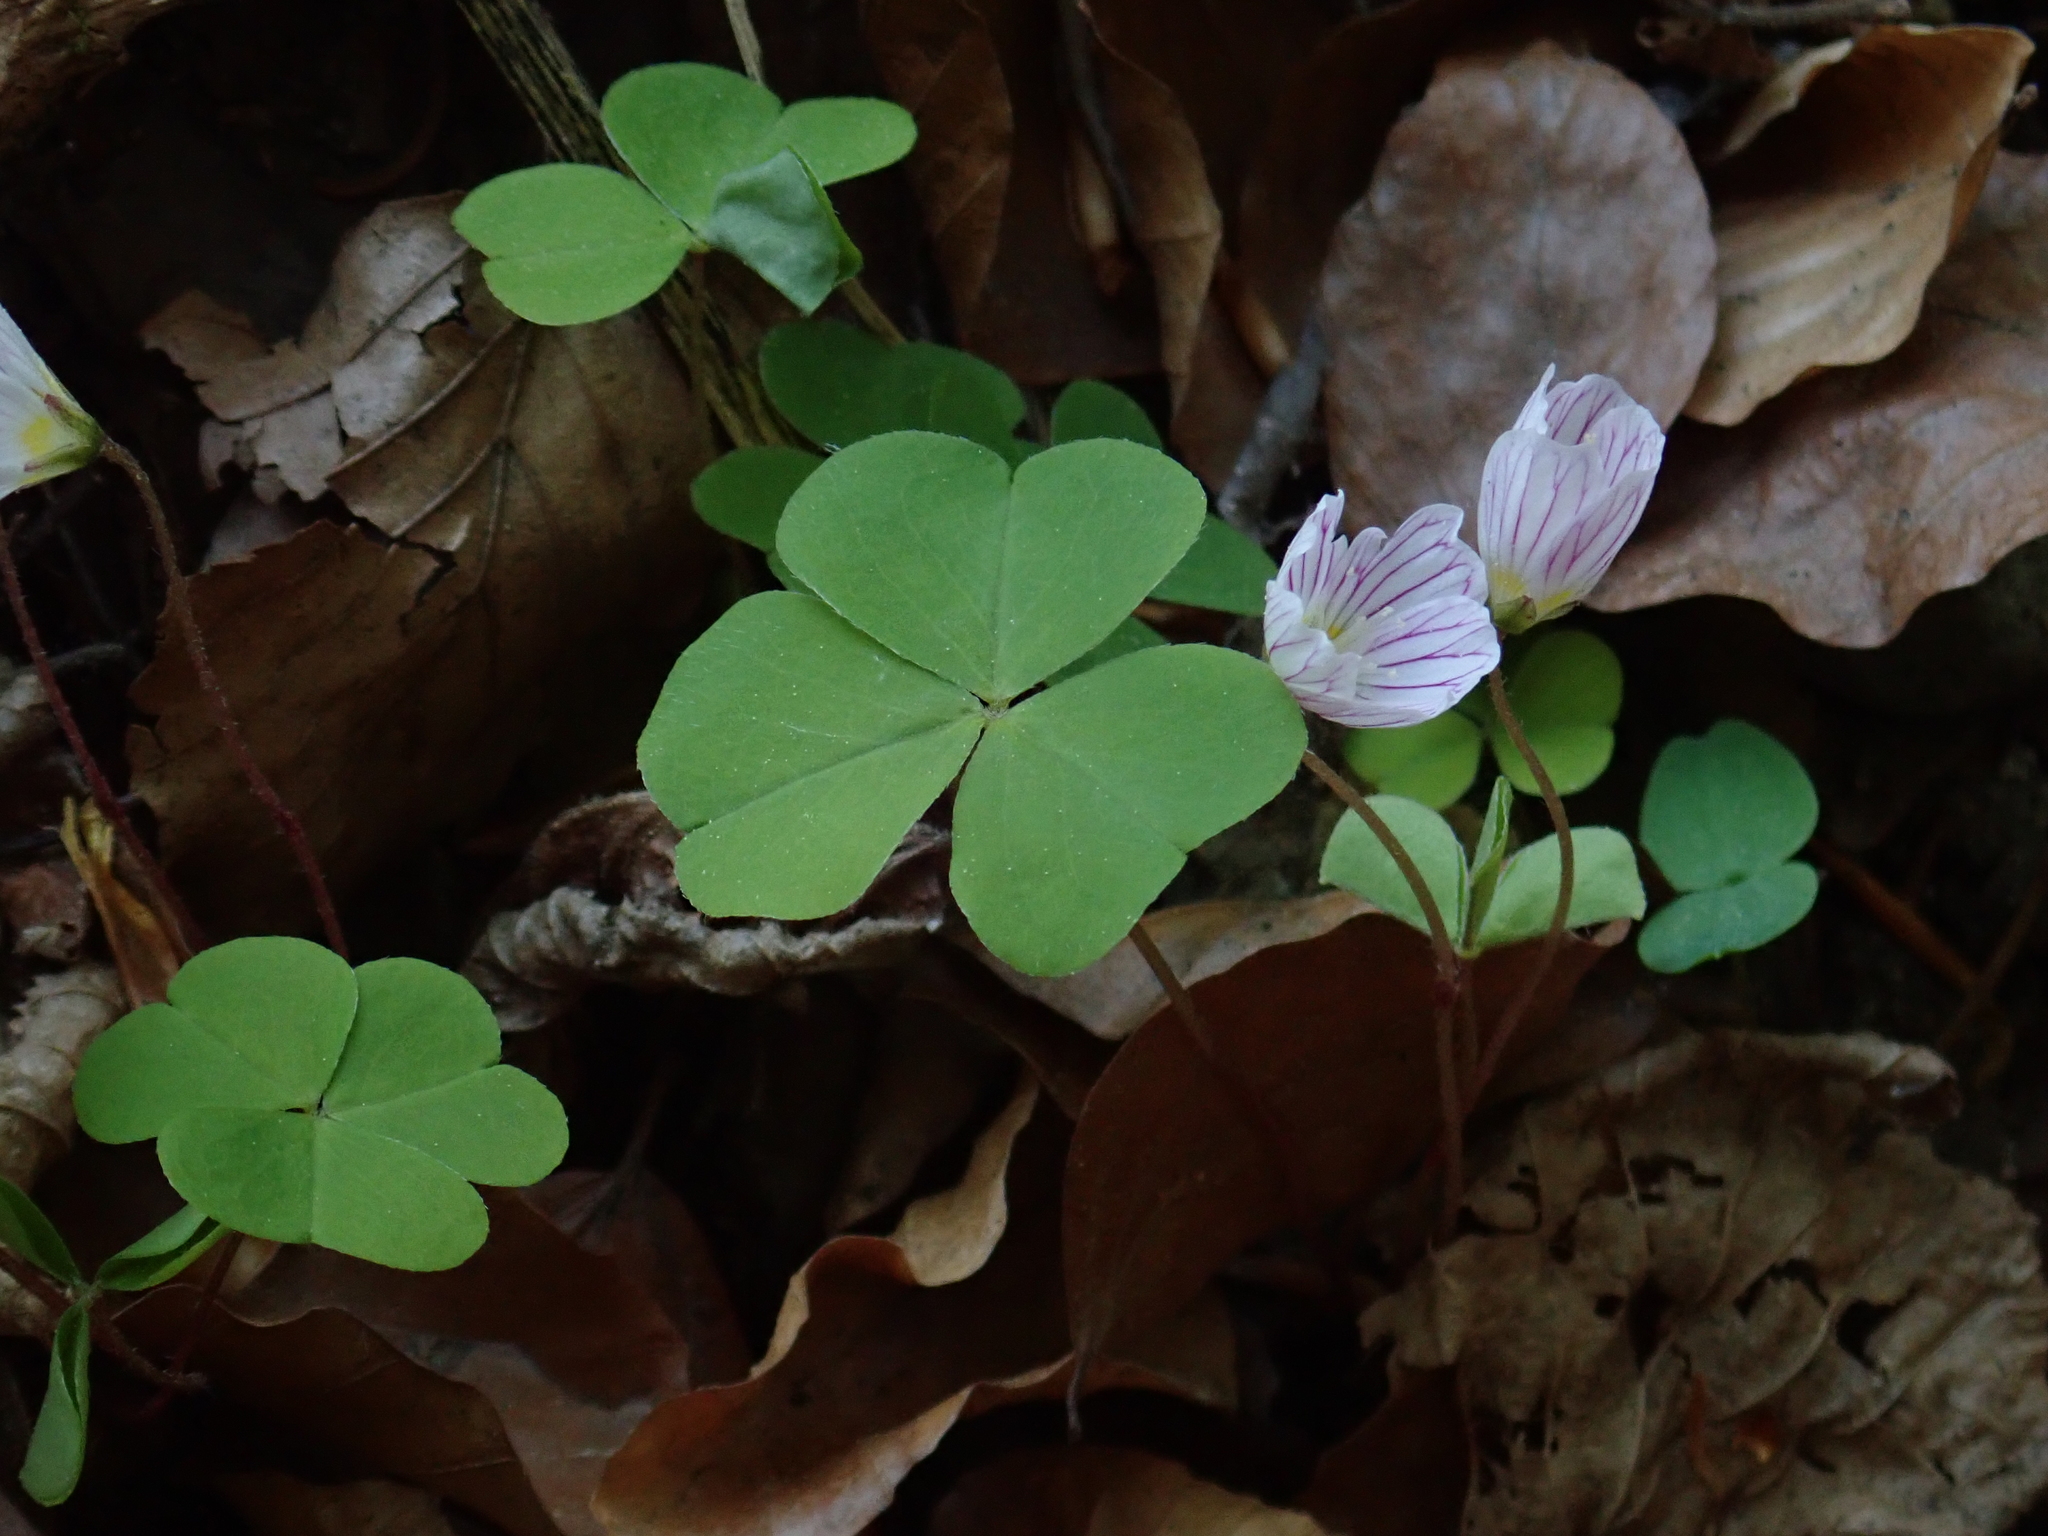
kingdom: Plantae
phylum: Tracheophyta
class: Magnoliopsida
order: Oxalidales
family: Oxalidaceae
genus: Oxalis
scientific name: Oxalis acetosella
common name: Wood-sorrel
